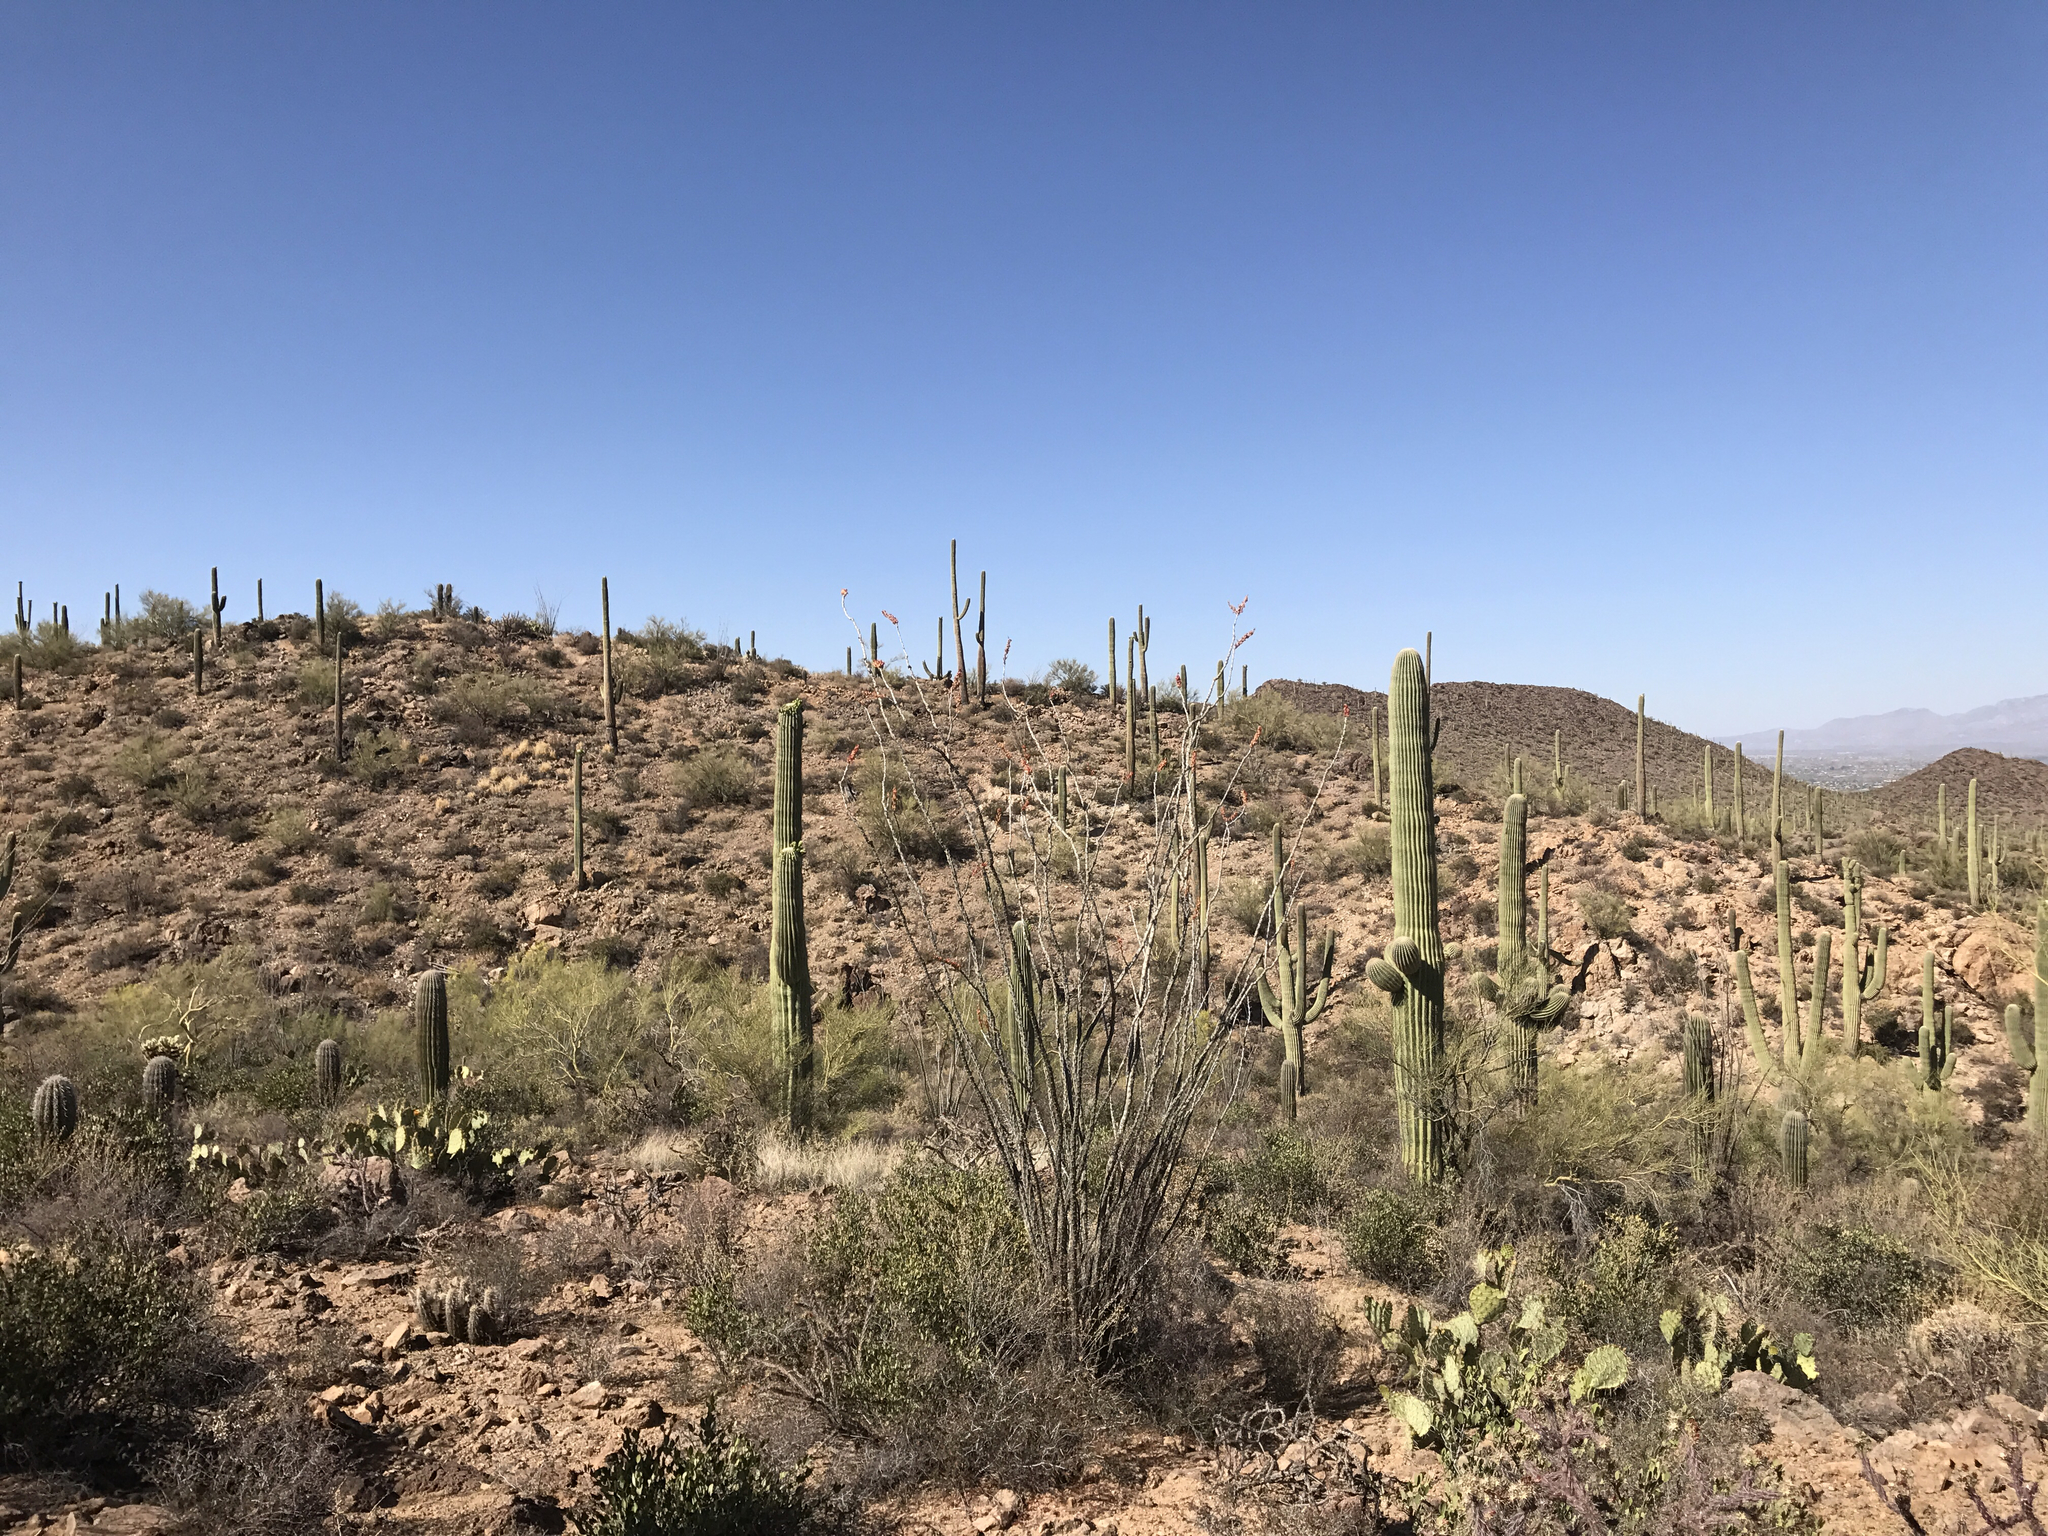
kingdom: Plantae
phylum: Tracheophyta
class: Magnoliopsida
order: Caryophyllales
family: Cactaceae
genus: Carnegiea
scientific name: Carnegiea gigantea
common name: Saguaro
